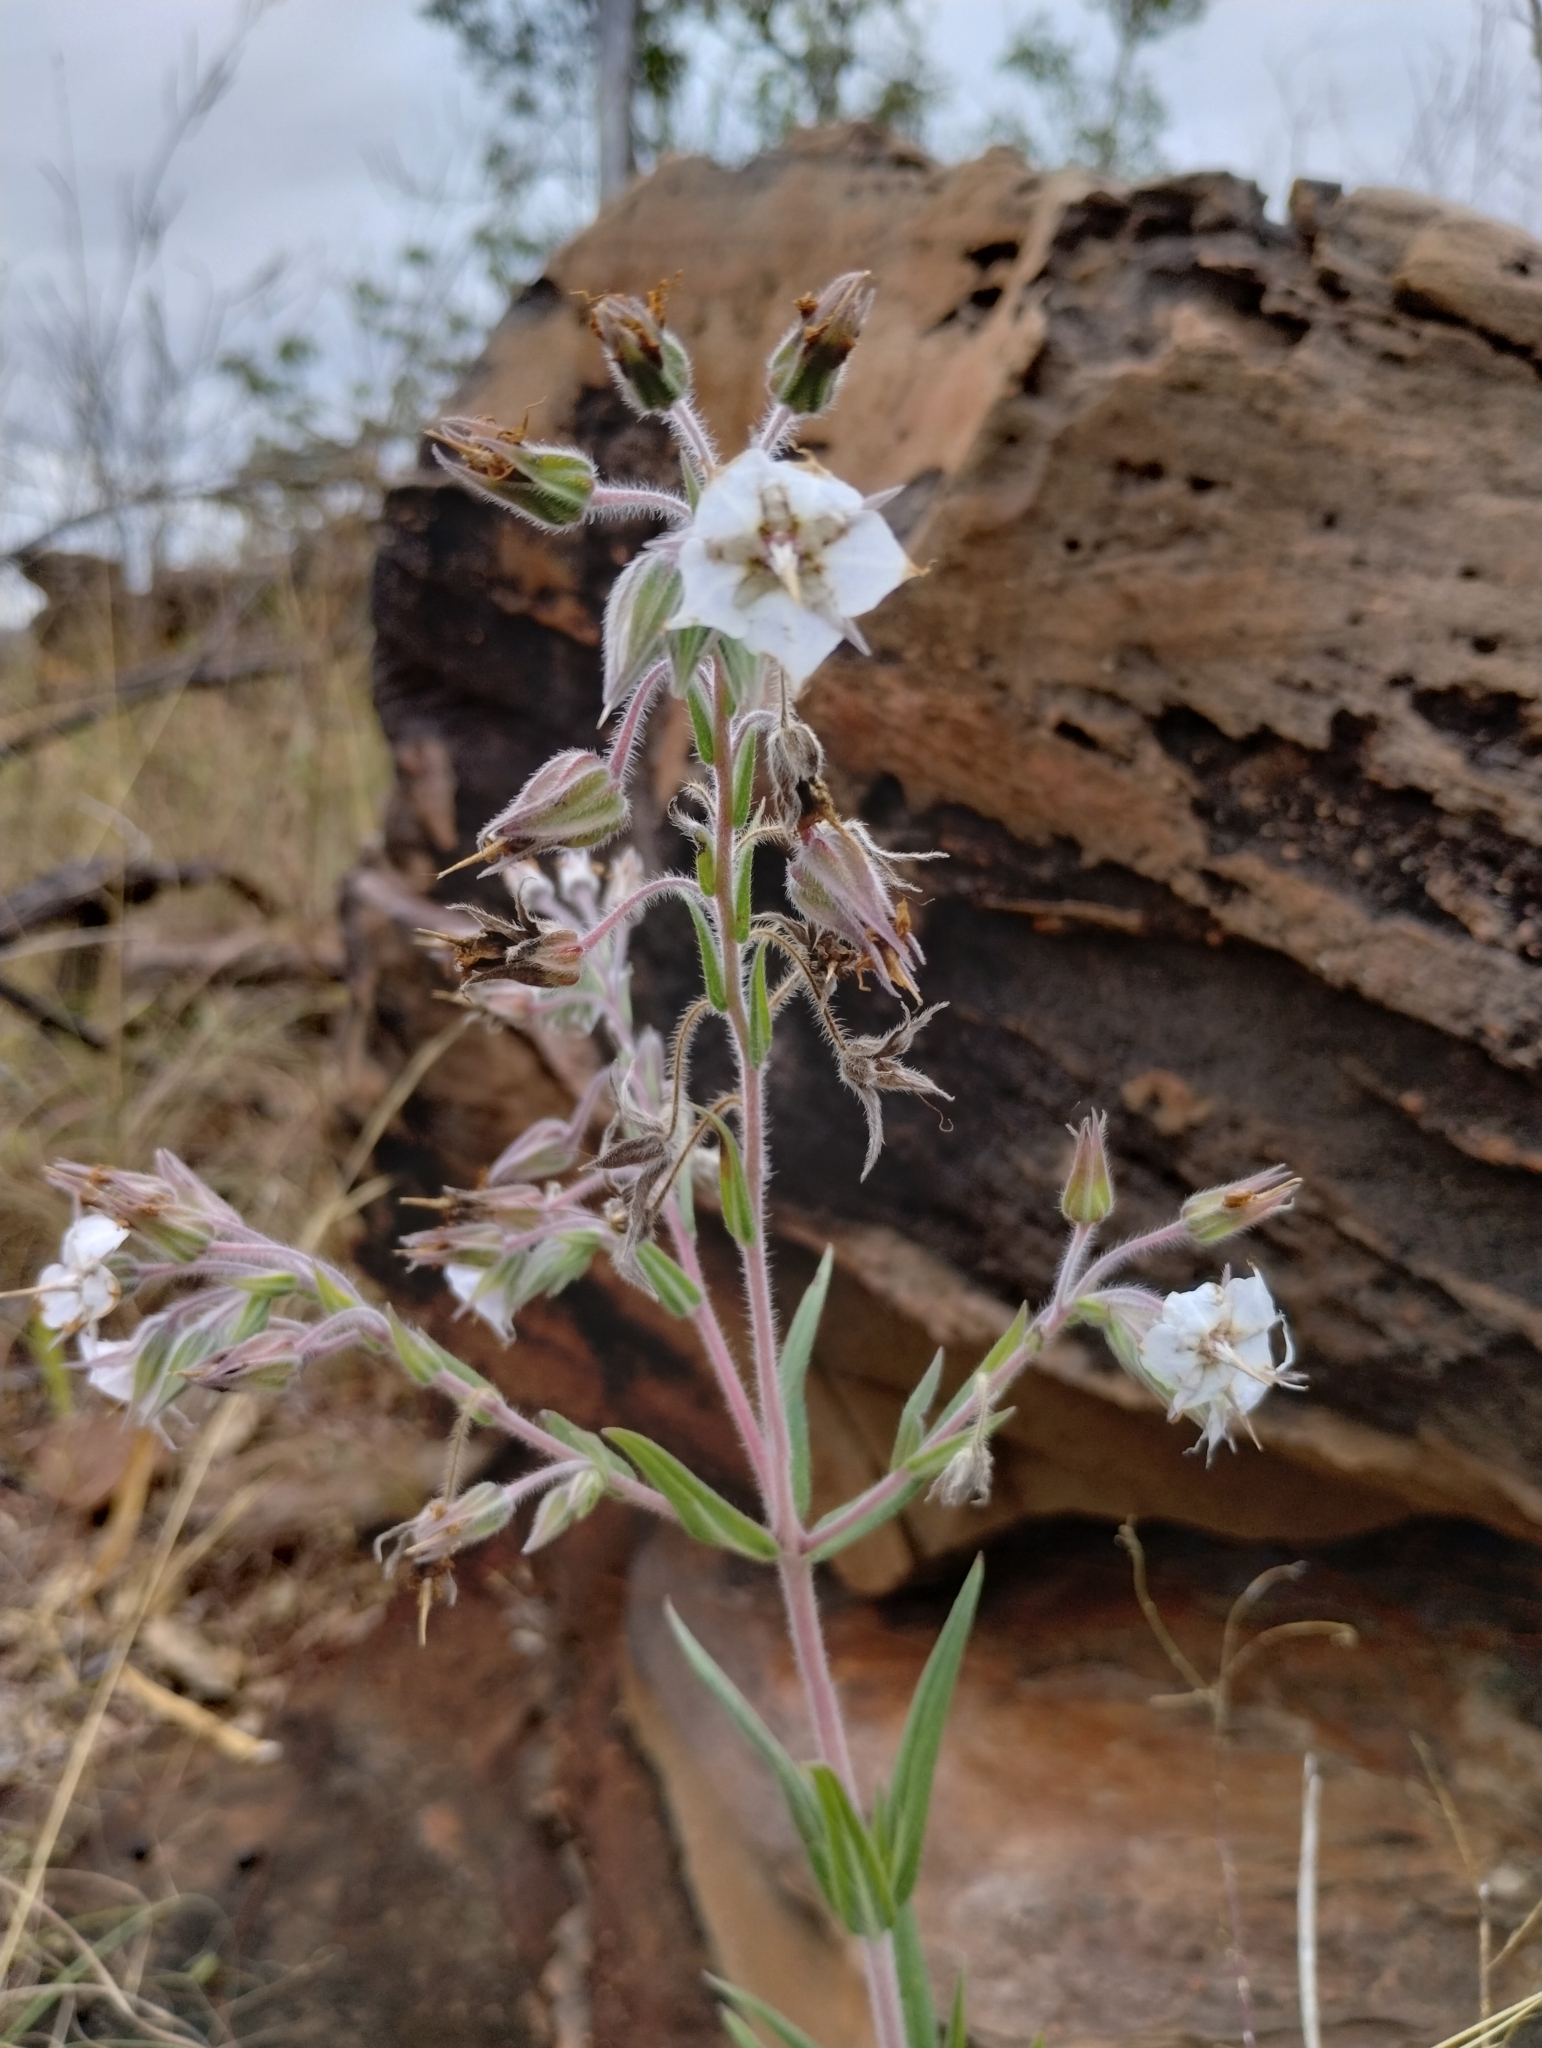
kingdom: Plantae
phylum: Tracheophyta
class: Magnoliopsida
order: Boraginales
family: Boraginaceae
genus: Trichodesma
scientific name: Trichodesma zeylanicum
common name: Camelbush
